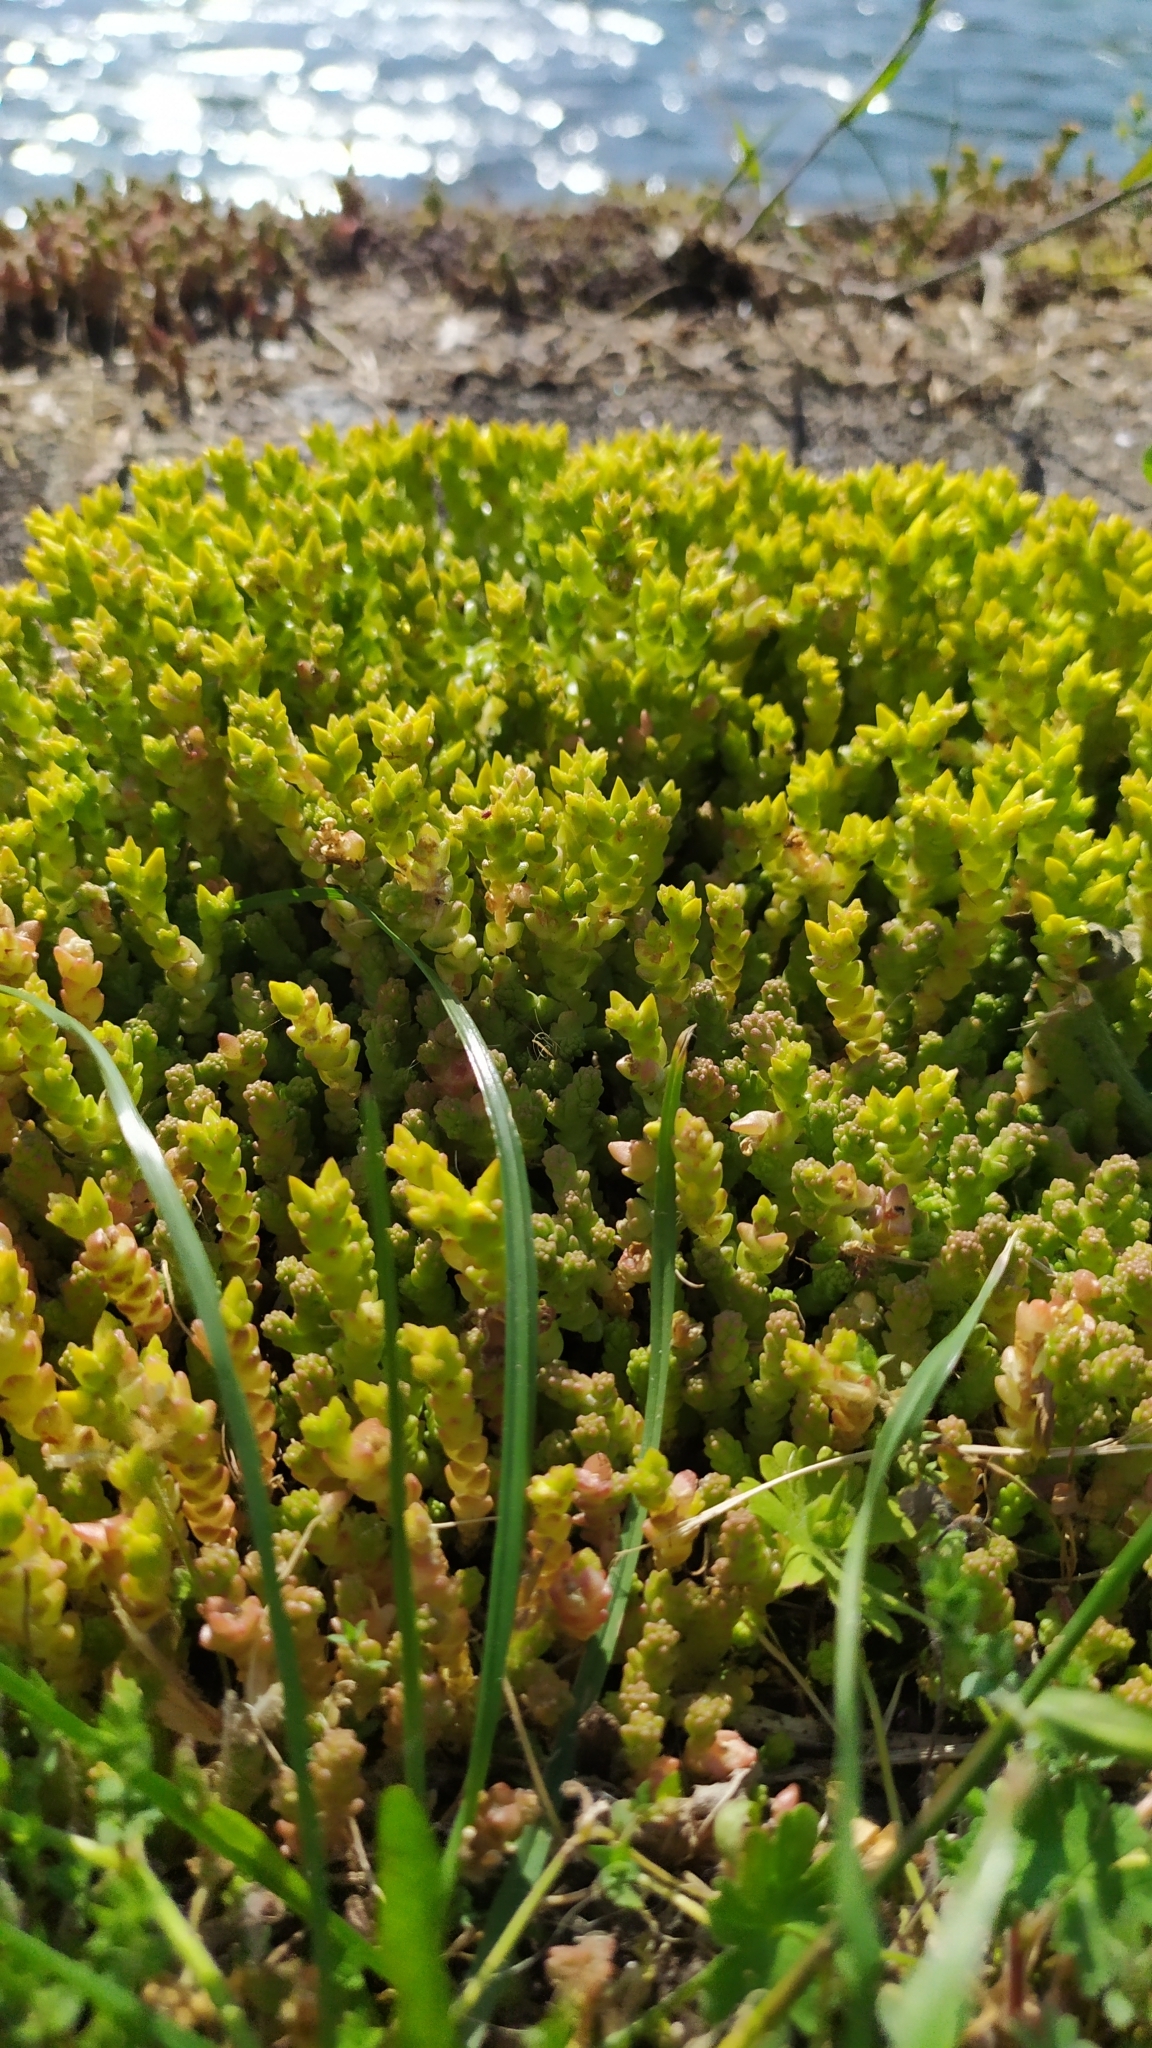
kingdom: Plantae
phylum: Tracheophyta
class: Magnoliopsida
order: Saxifragales
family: Crassulaceae
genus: Sedum
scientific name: Sedum acre
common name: Biting stonecrop
